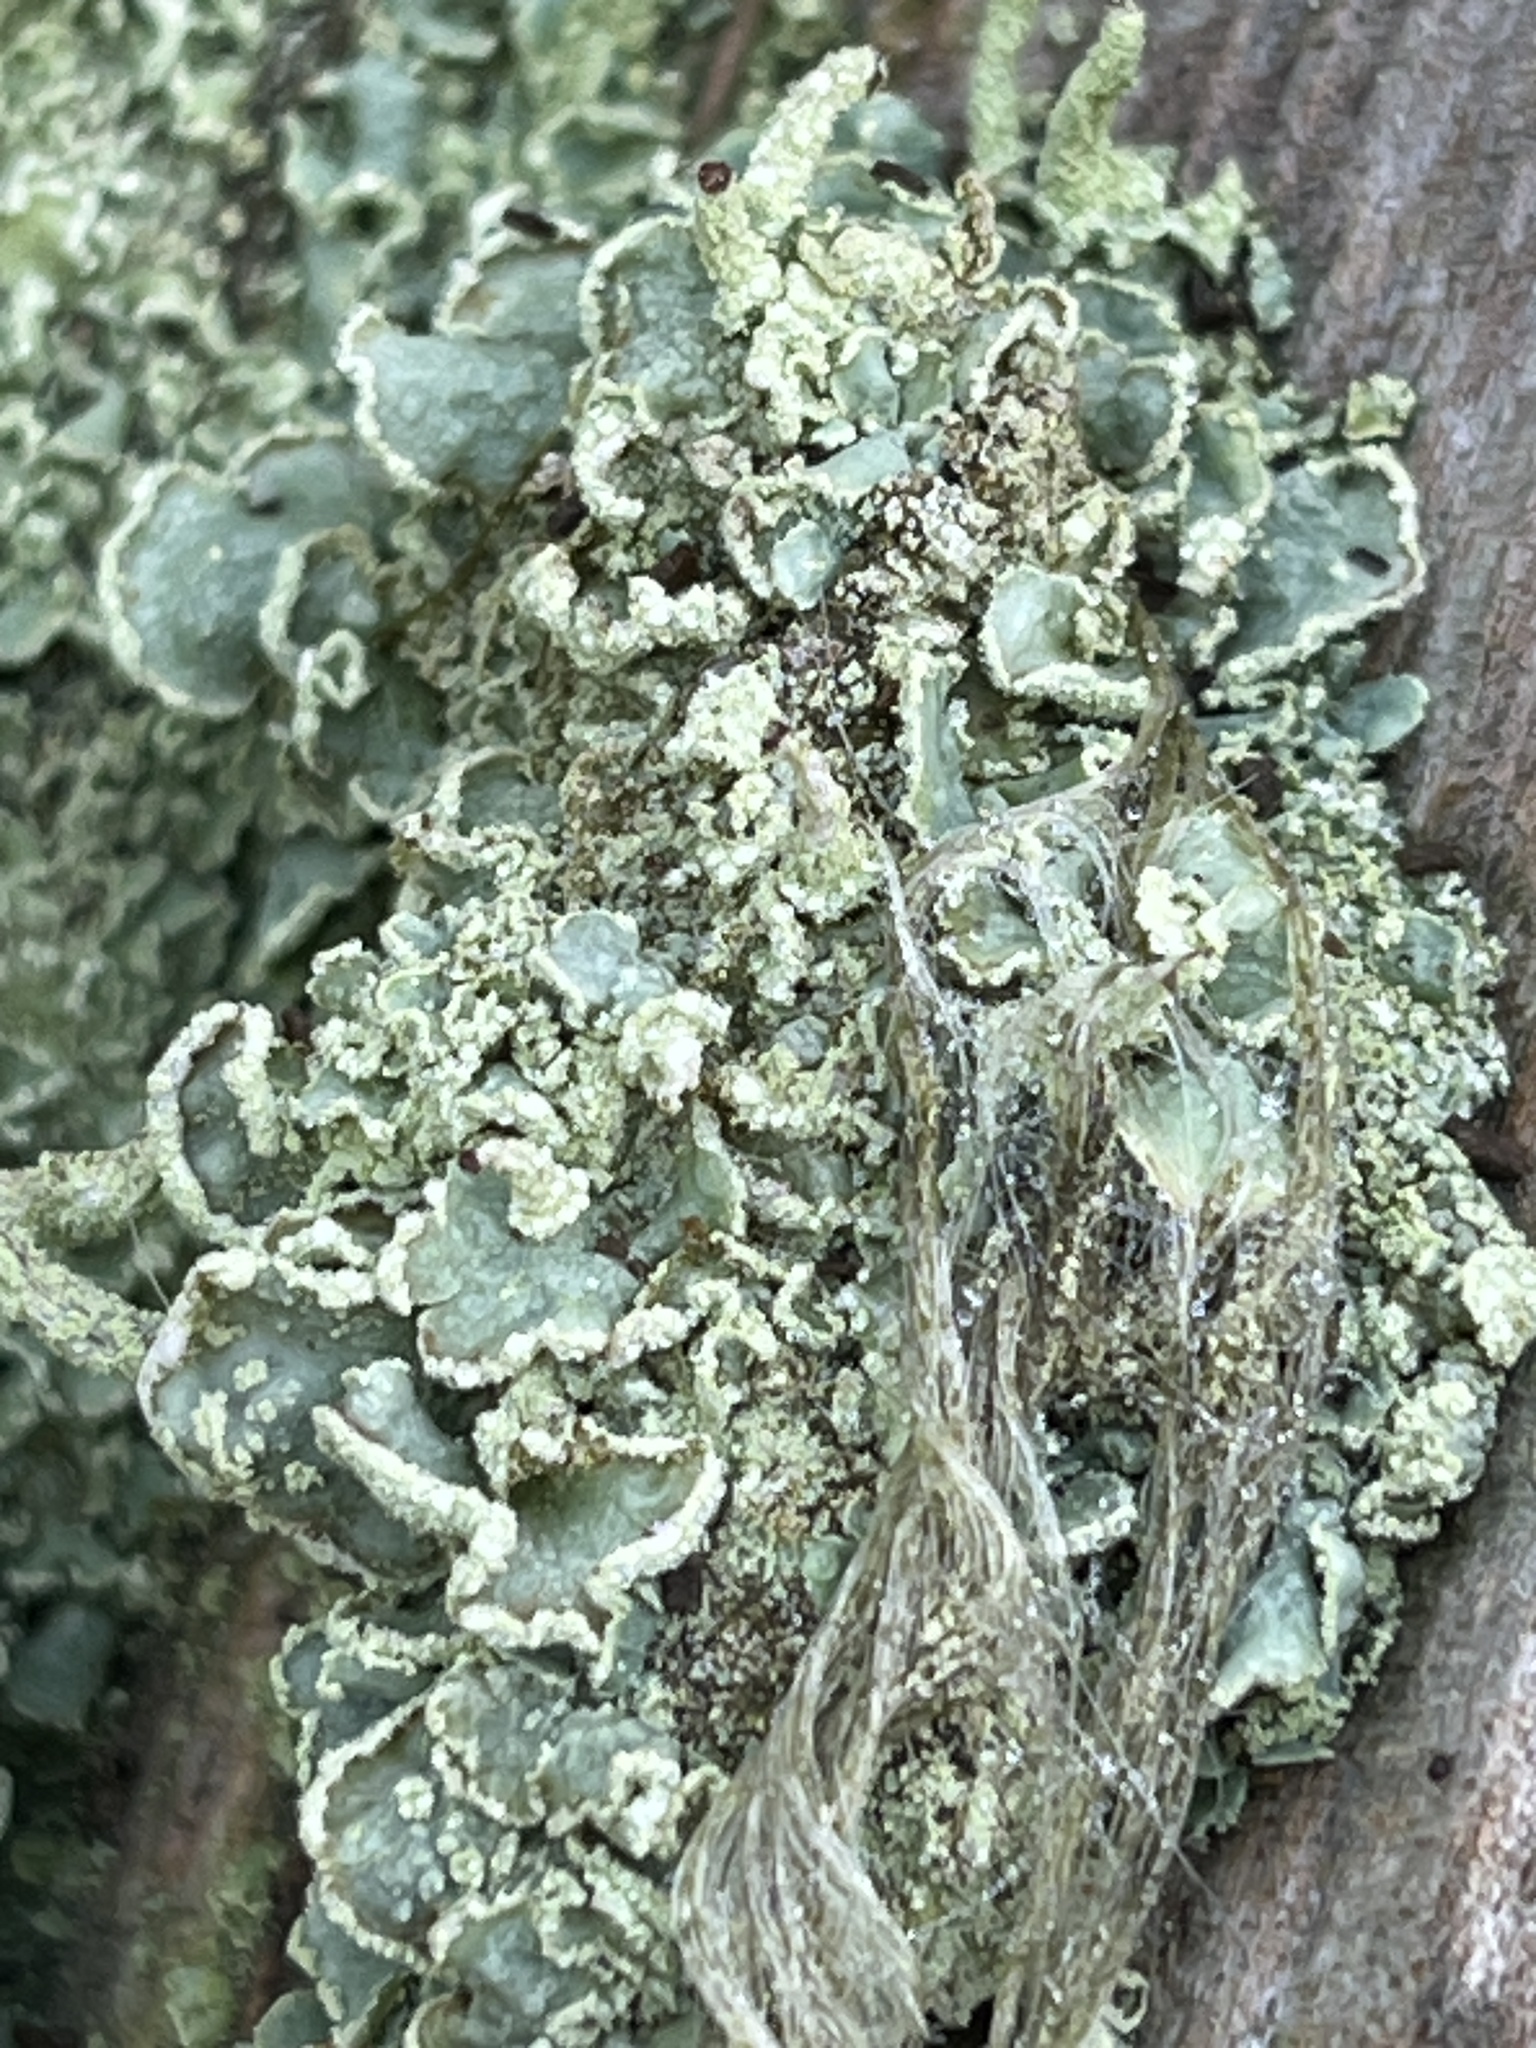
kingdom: Fungi
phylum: Ascomycota
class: Lecanoromycetes
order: Lecanorales
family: Cladoniaceae
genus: Cladonia
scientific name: Cladonia digitata
